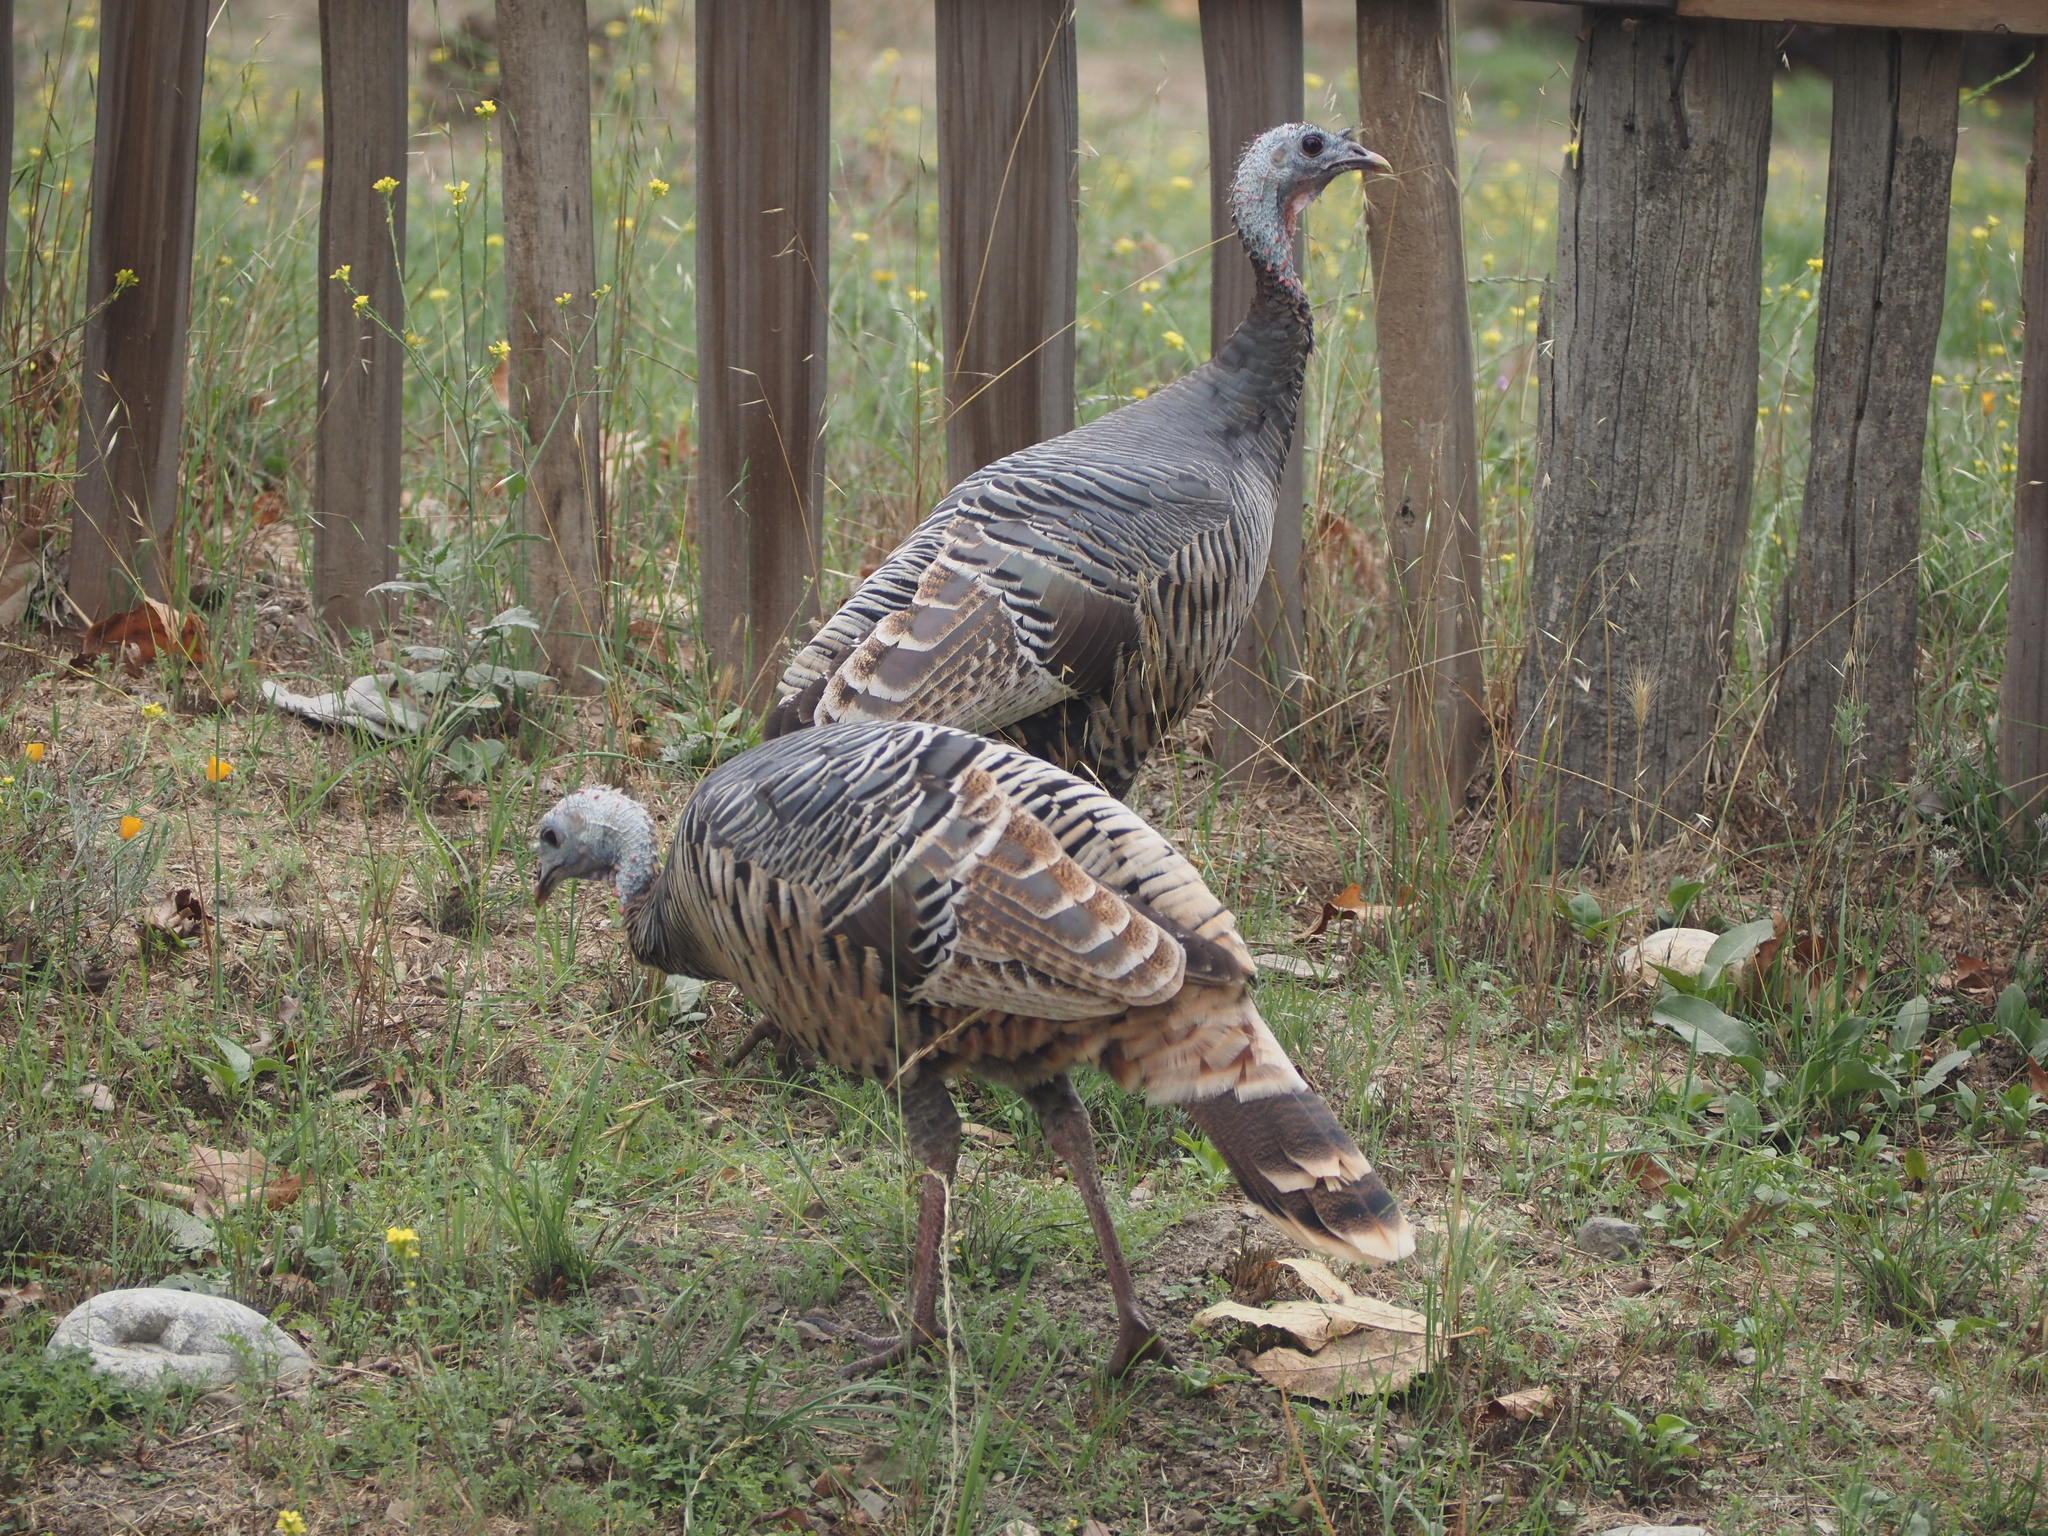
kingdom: Animalia
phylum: Chordata
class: Aves
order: Galliformes
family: Phasianidae
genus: Meleagris
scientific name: Meleagris gallopavo
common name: Wild turkey
